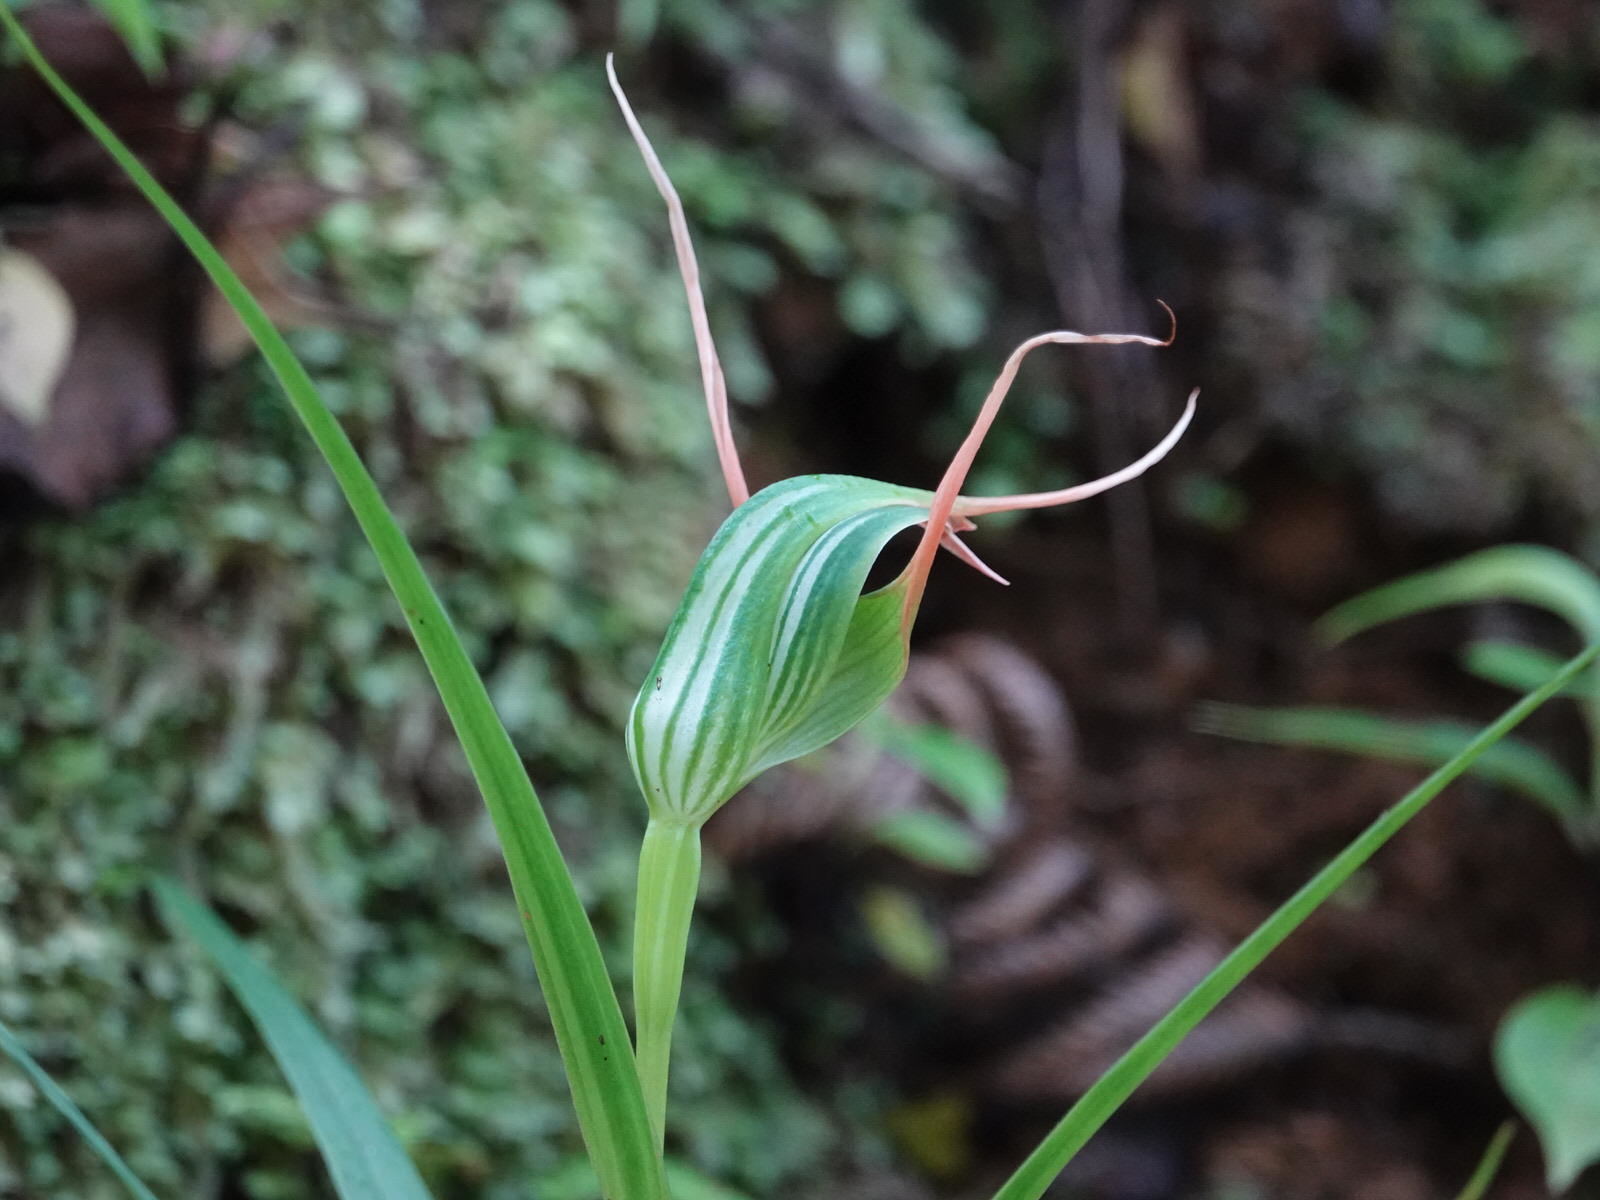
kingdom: Plantae
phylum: Tracheophyta
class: Liliopsida
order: Asparagales
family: Orchidaceae
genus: Pterostylis
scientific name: Pterostylis banksii
